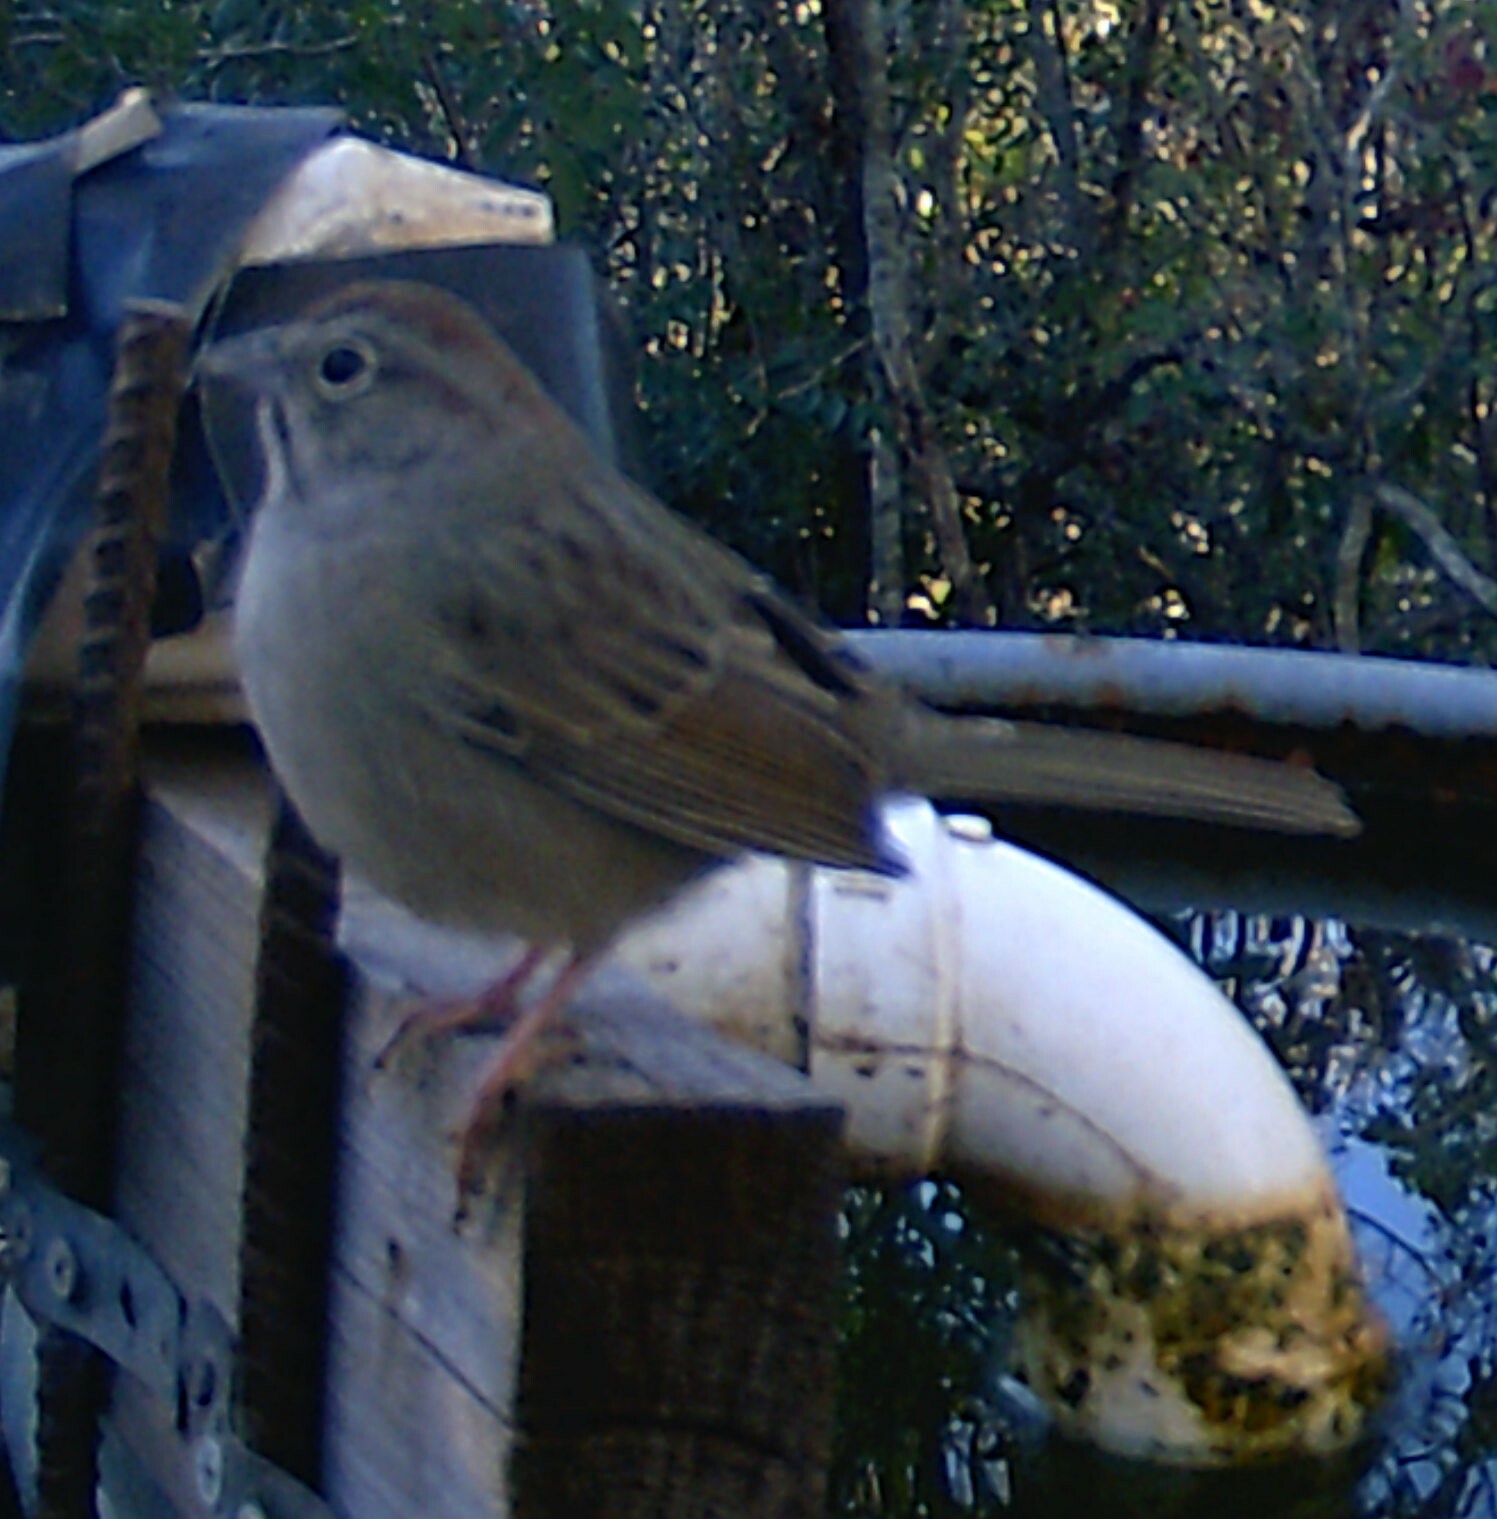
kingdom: Animalia
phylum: Chordata
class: Aves
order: Passeriformes
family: Passerellidae
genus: Aimophila
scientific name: Aimophila ruficeps
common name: Rufous-crowned sparrow
